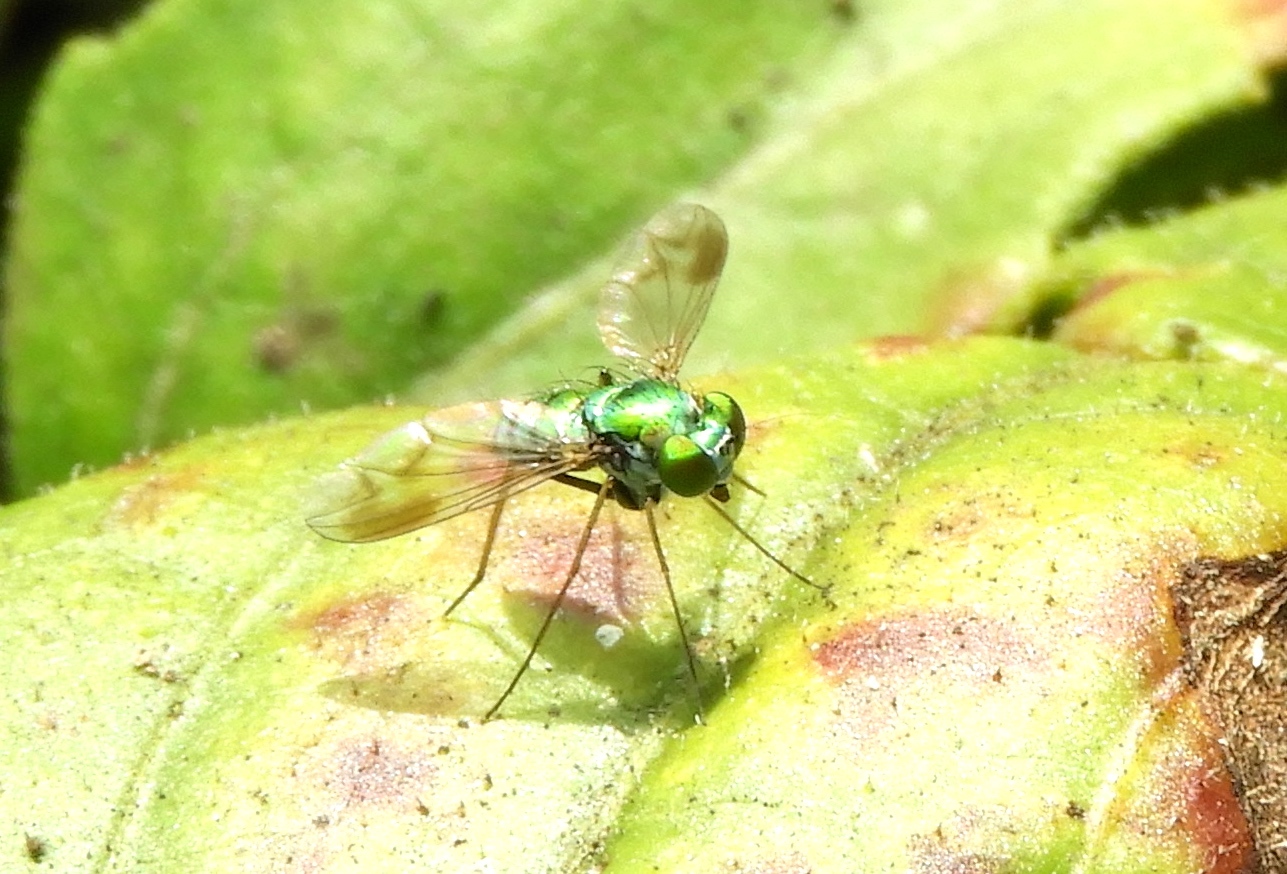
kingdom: Animalia
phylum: Arthropoda
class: Insecta
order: Diptera
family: Dolichopodidae
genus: Condylostylus
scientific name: Condylostylus
